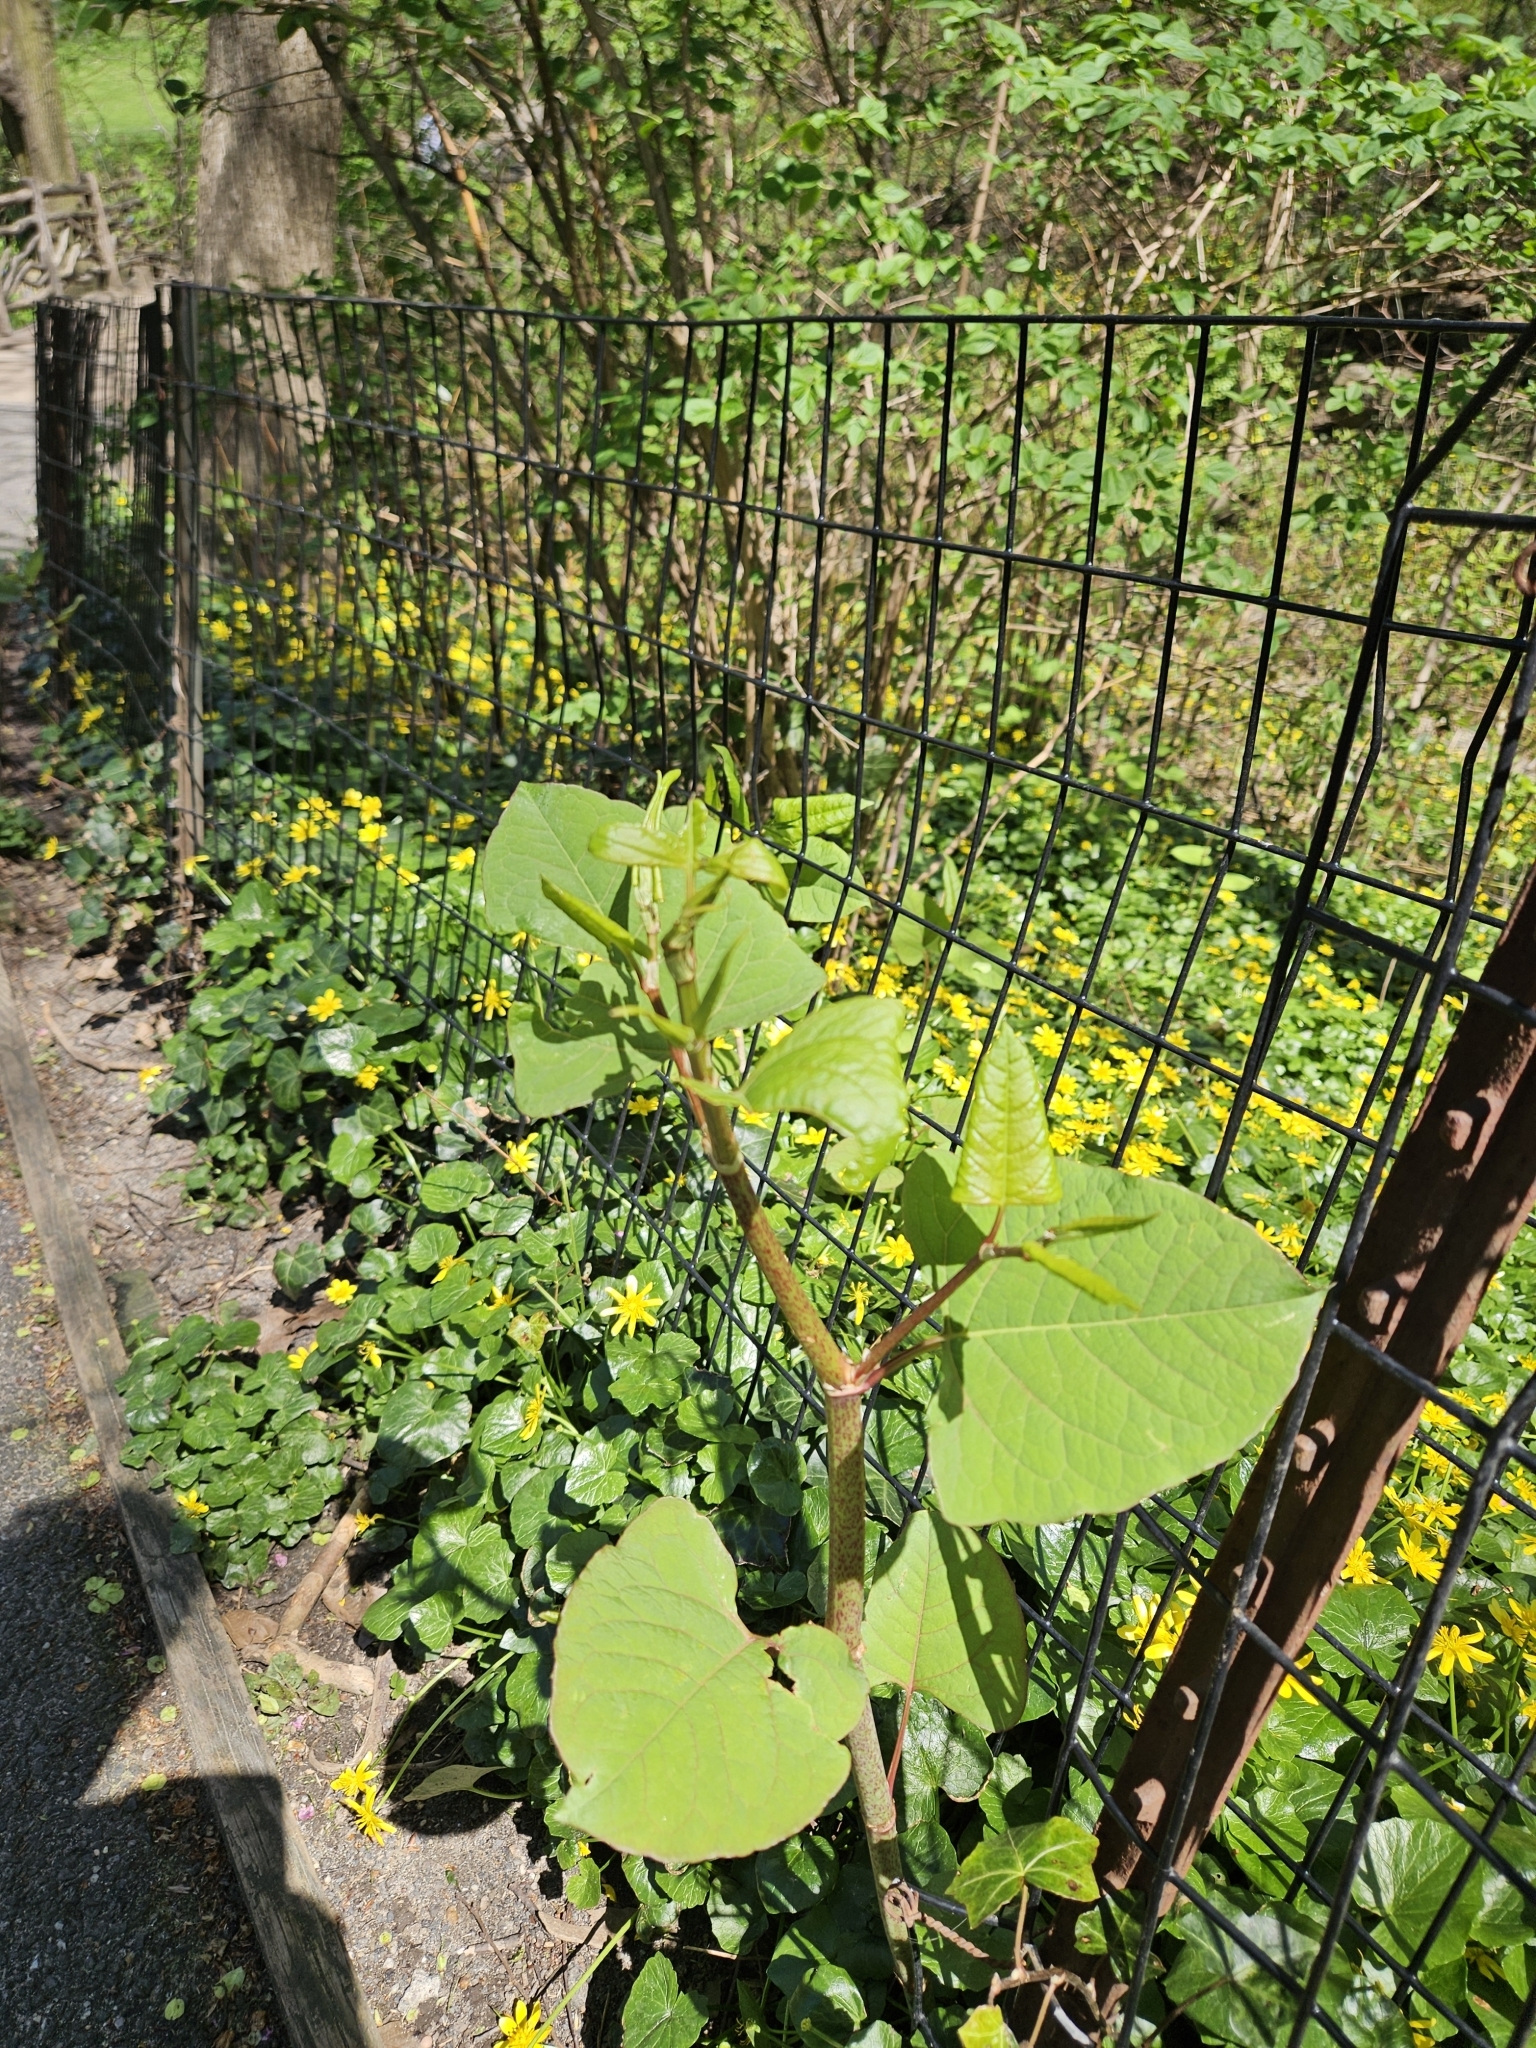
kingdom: Plantae
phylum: Tracheophyta
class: Magnoliopsida
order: Caryophyllales
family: Polygonaceae
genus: Reynoutria
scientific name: Reynoutria japonica
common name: Japanese knotweed
